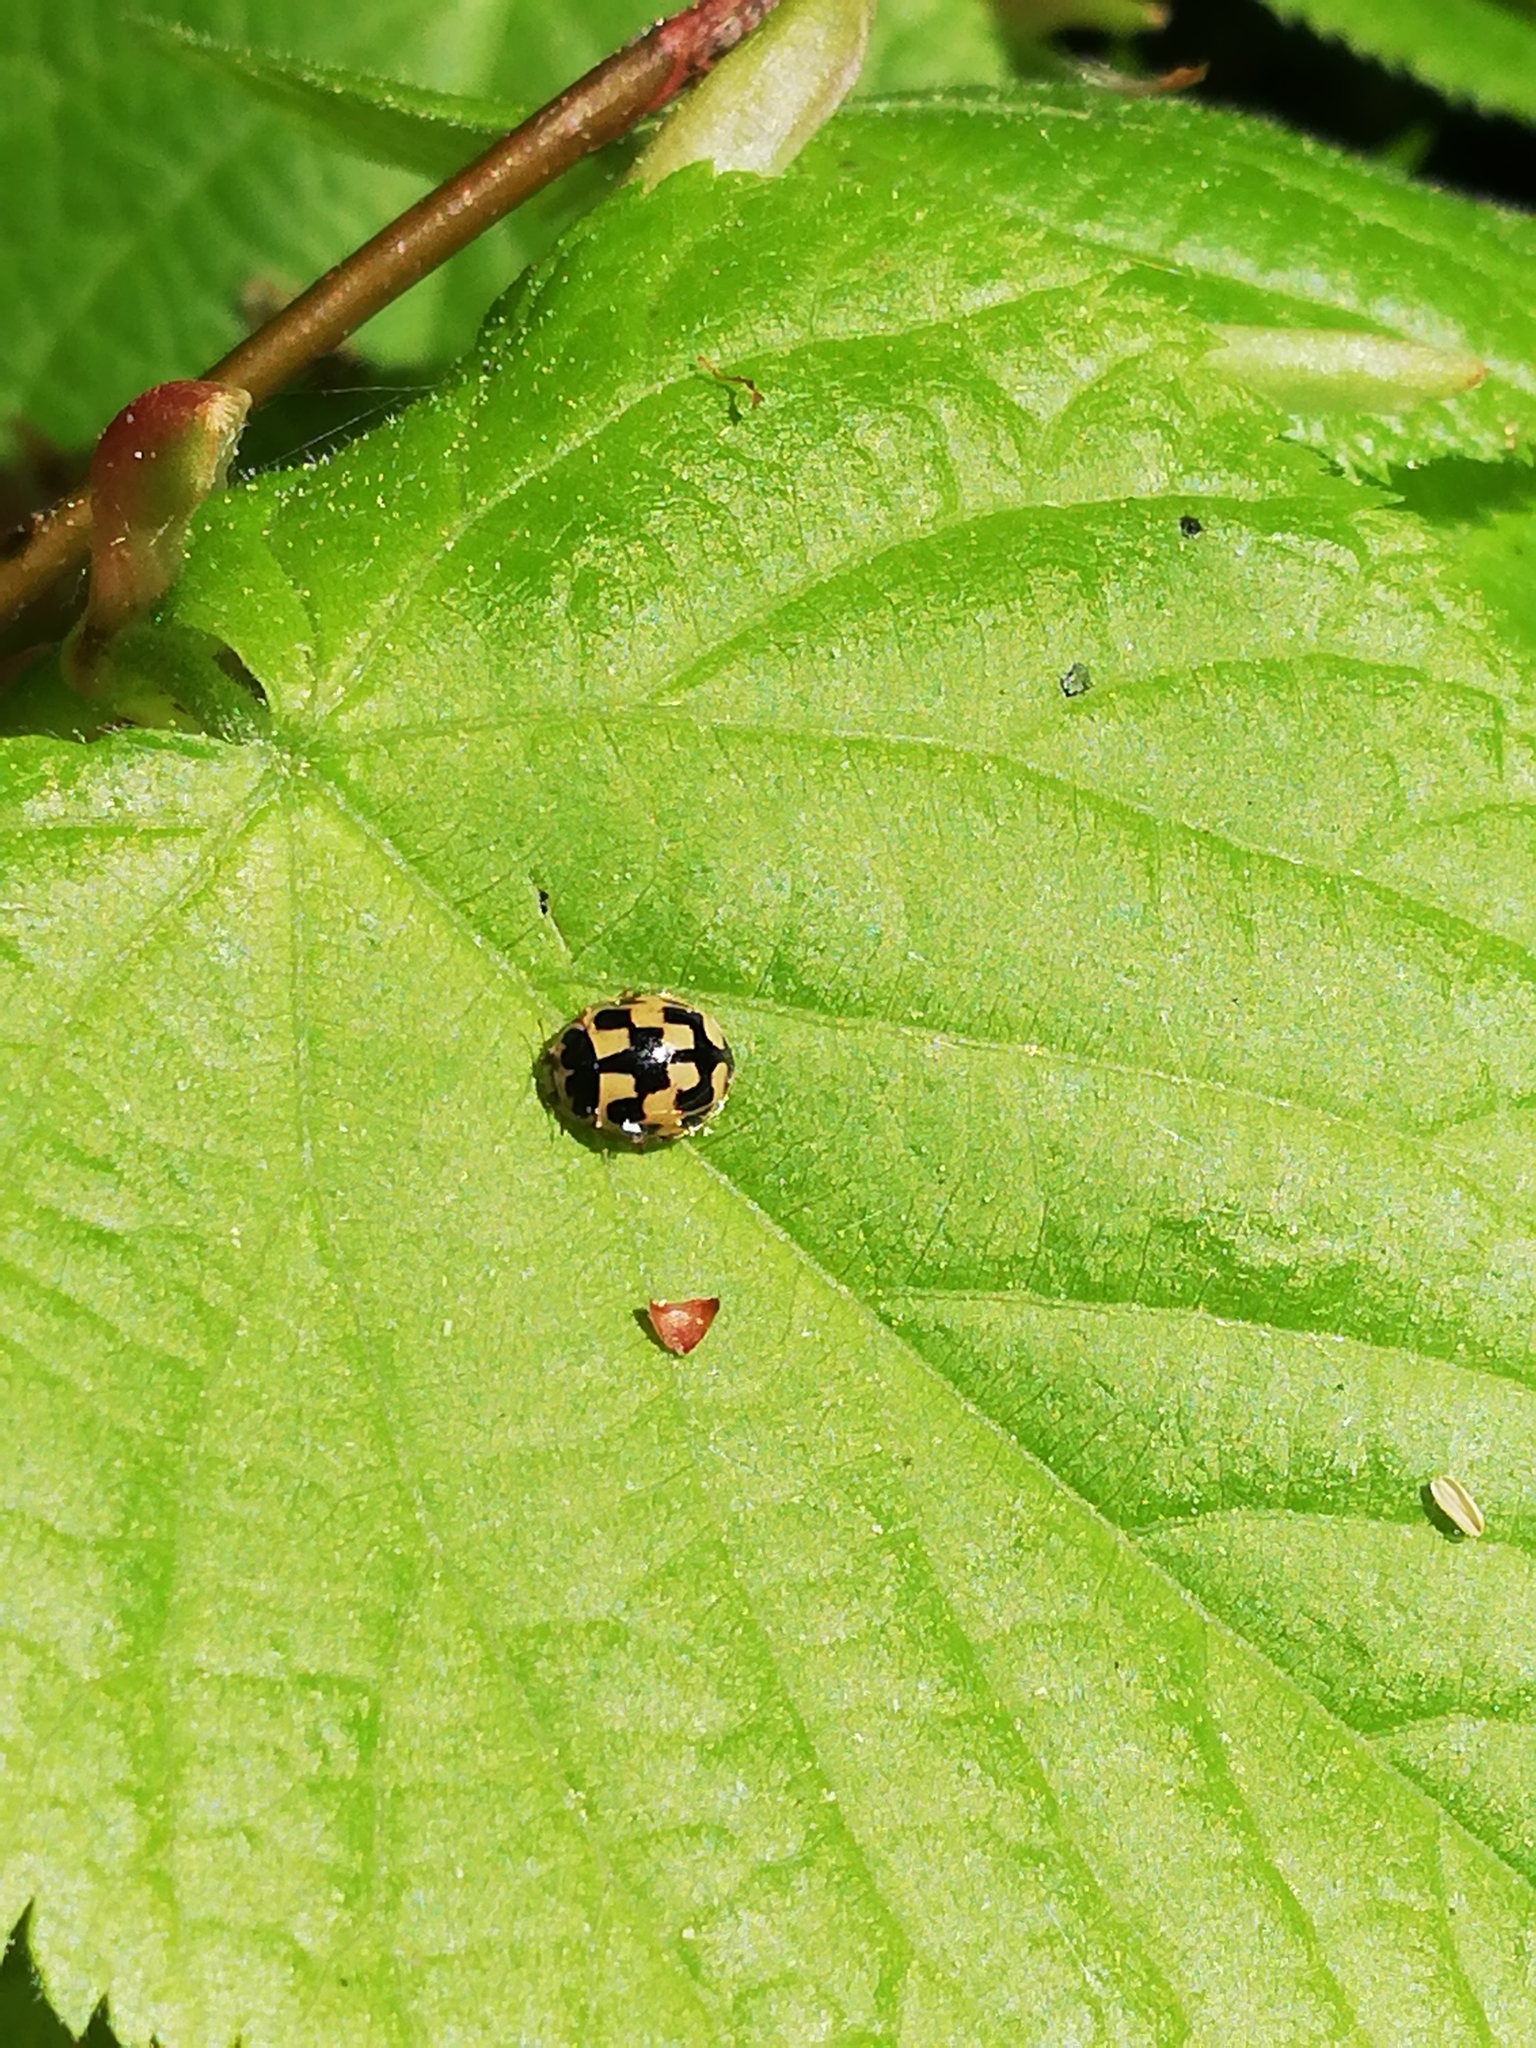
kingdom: Animalia
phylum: Arthropoda
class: Insecta
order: Coleoptera
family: Coccinellidae
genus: Propylaea
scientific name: Propylaea quatuordecimpunctata
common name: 14-spotted ladybird beetle
